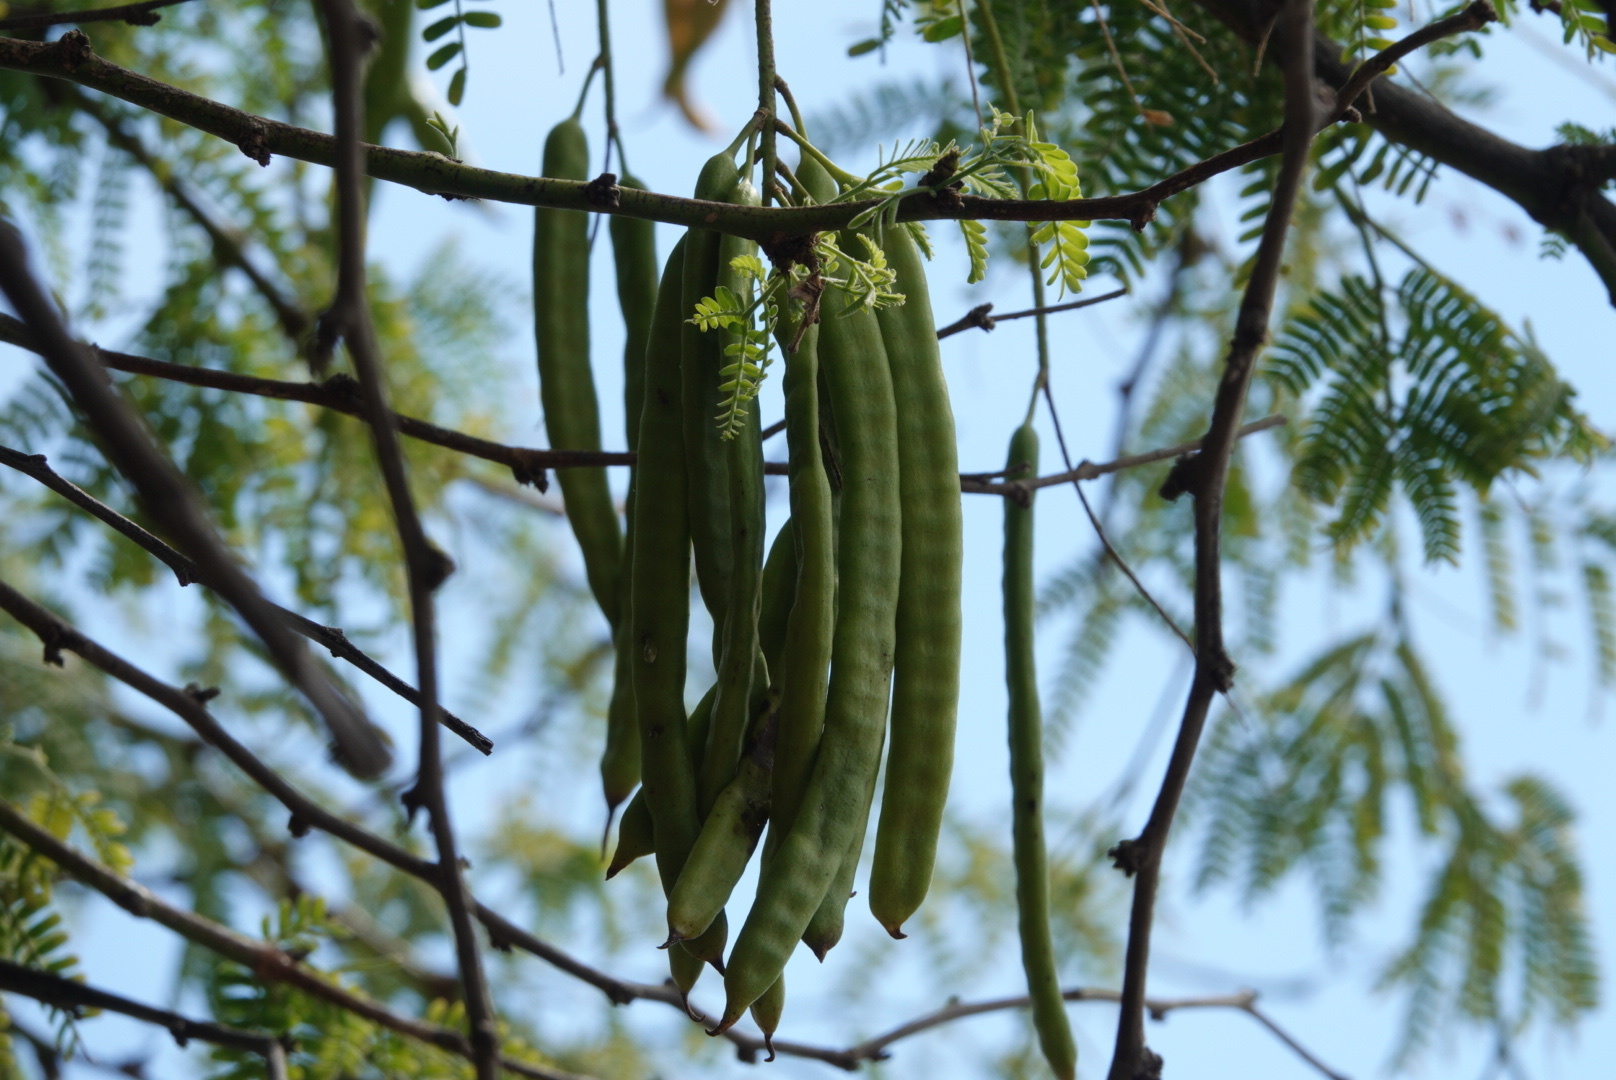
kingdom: Plantae
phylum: Tracheophyta
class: Magnoliopsida
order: Fabales
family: Fabaceae
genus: Prosopis
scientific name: Prosopis pallida
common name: Mesquite
